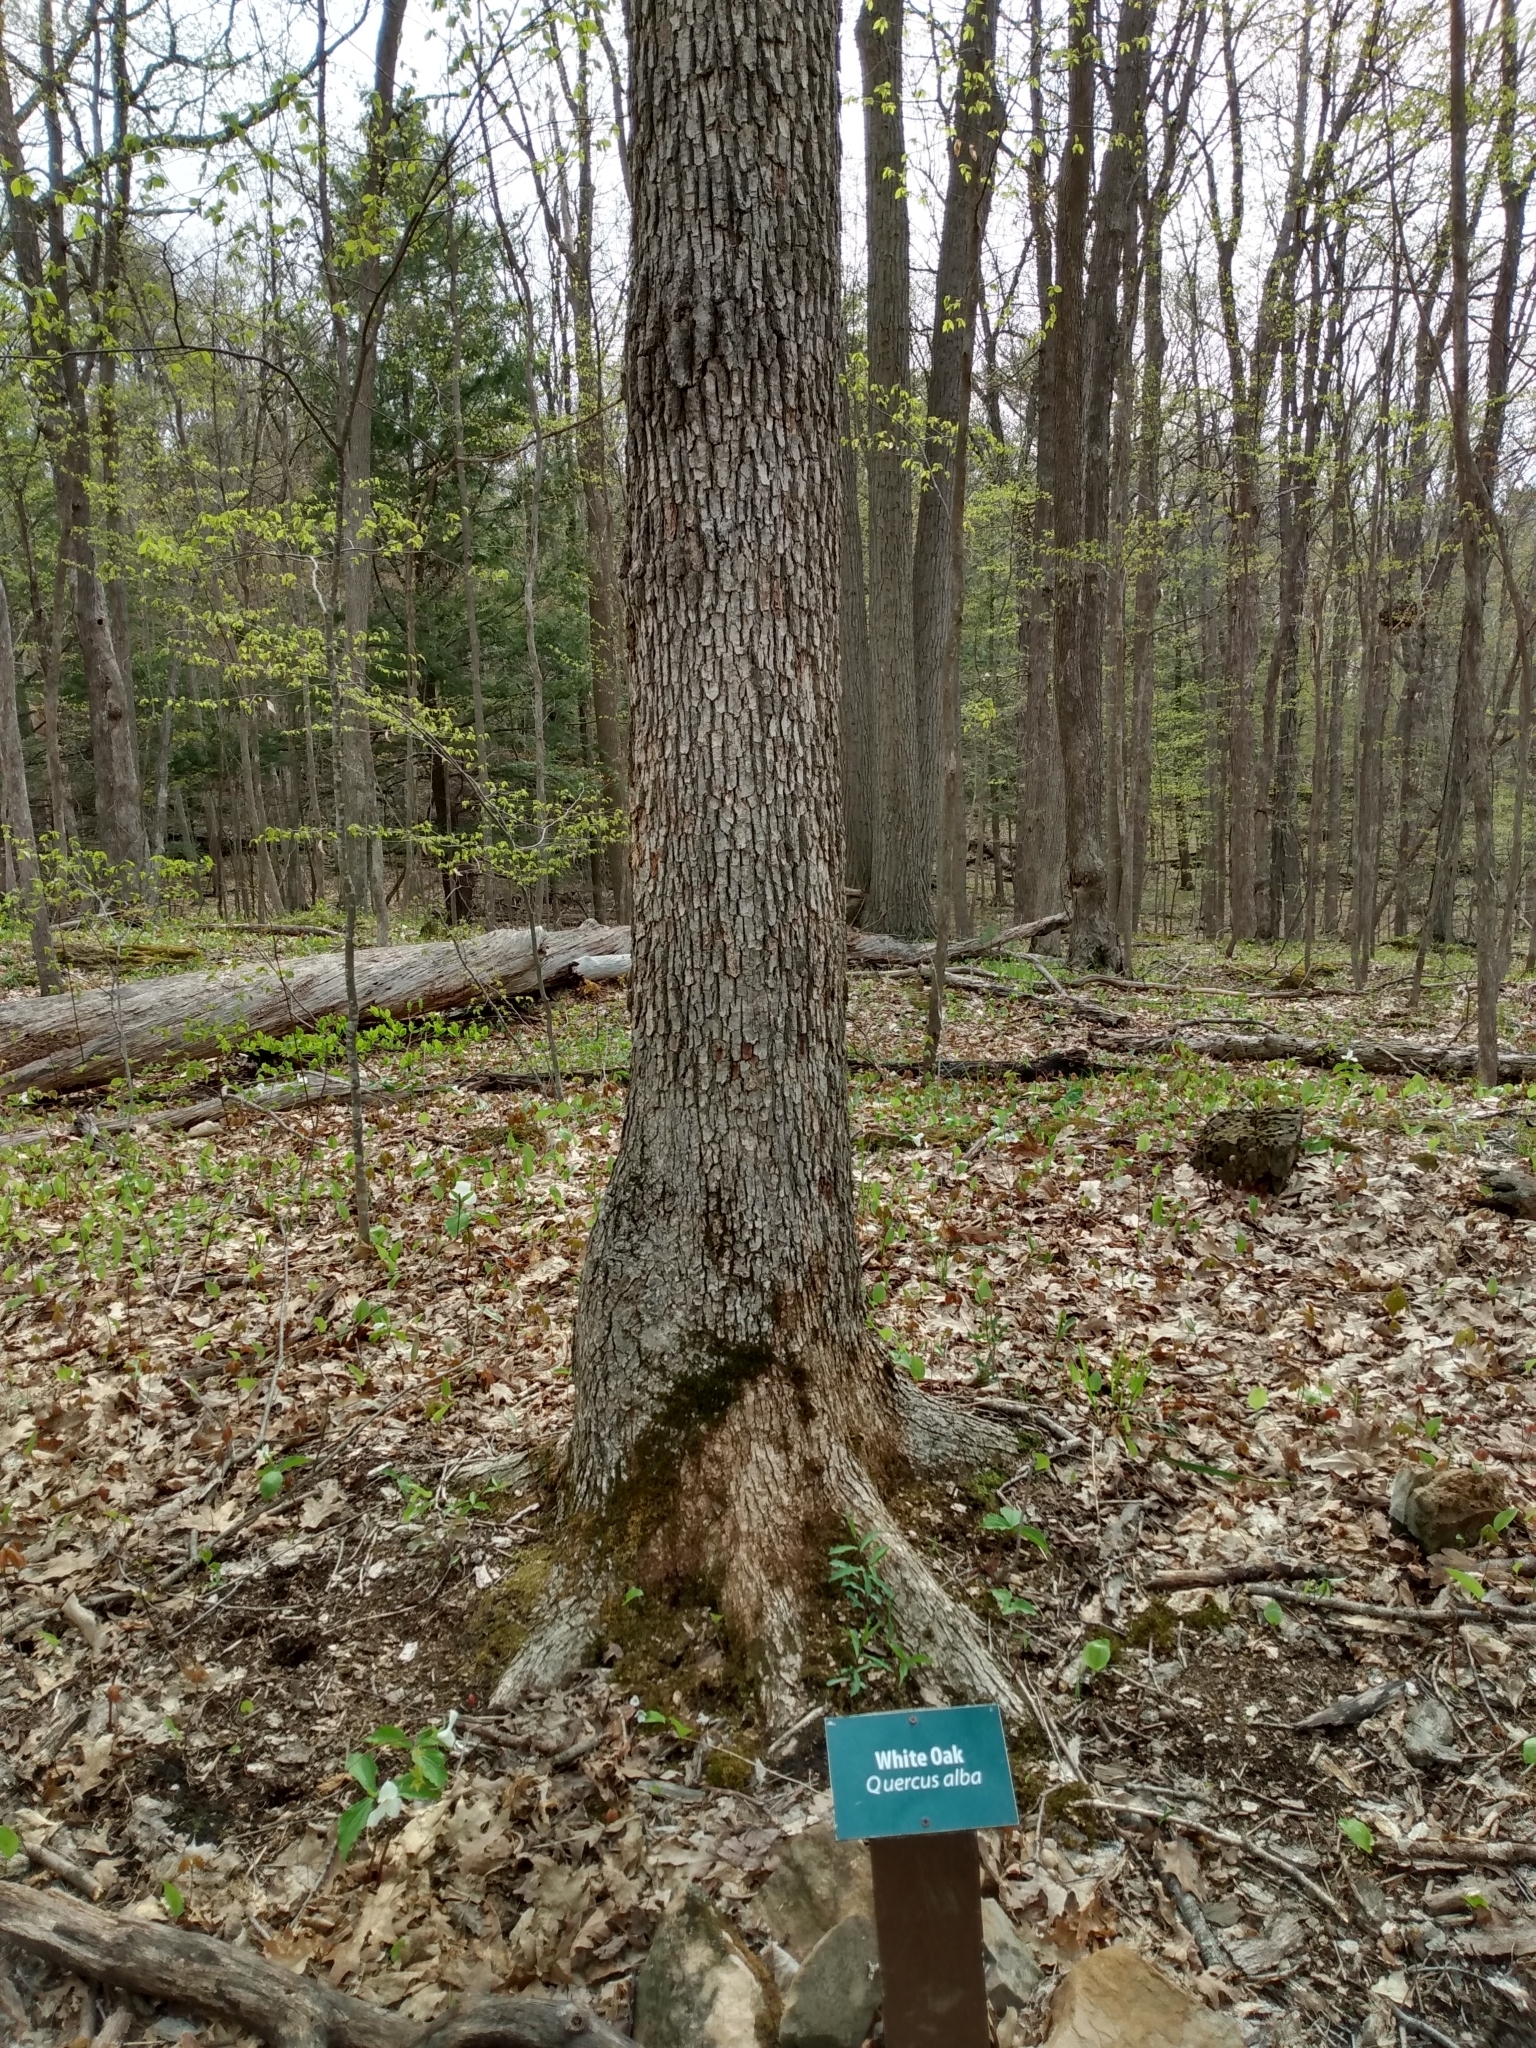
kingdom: Plantae
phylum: Tracheophyta
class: Magnoliopsida
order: Fagales
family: Fagaceae
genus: Quercus
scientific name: Quercus alba
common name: White oak
